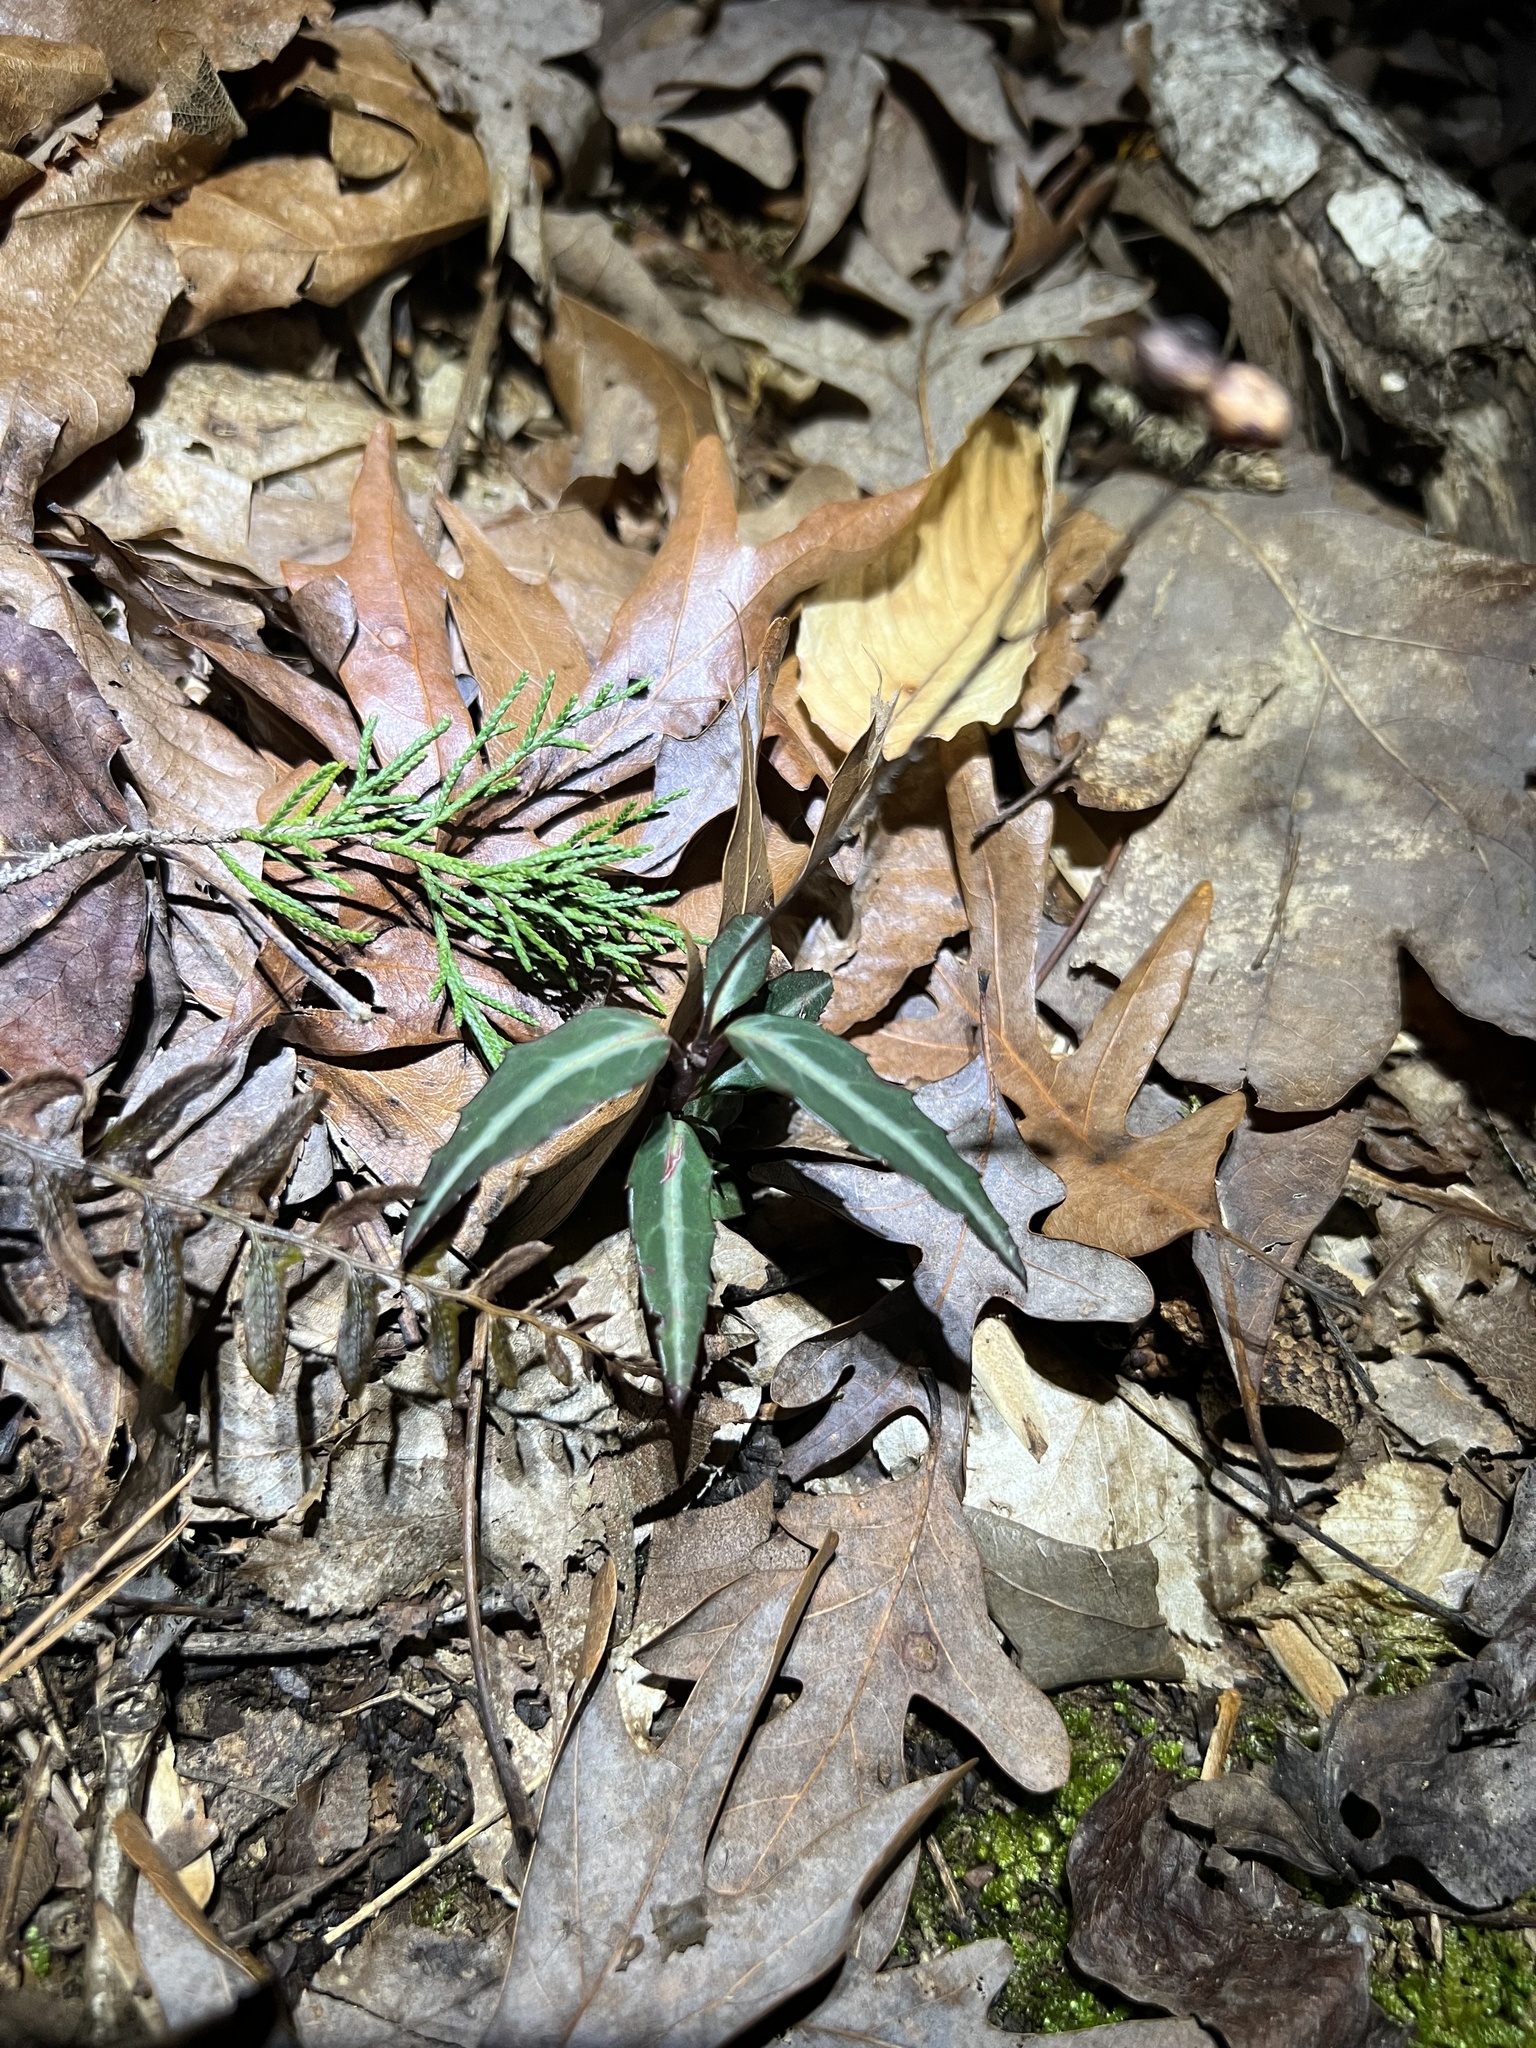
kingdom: Plantae
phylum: Tracheophyta
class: Magnoliopsida
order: Ericales
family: Ericaceae
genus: Chimaphila
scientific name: Chimaphila maculata
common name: Spotted pipsissewa
